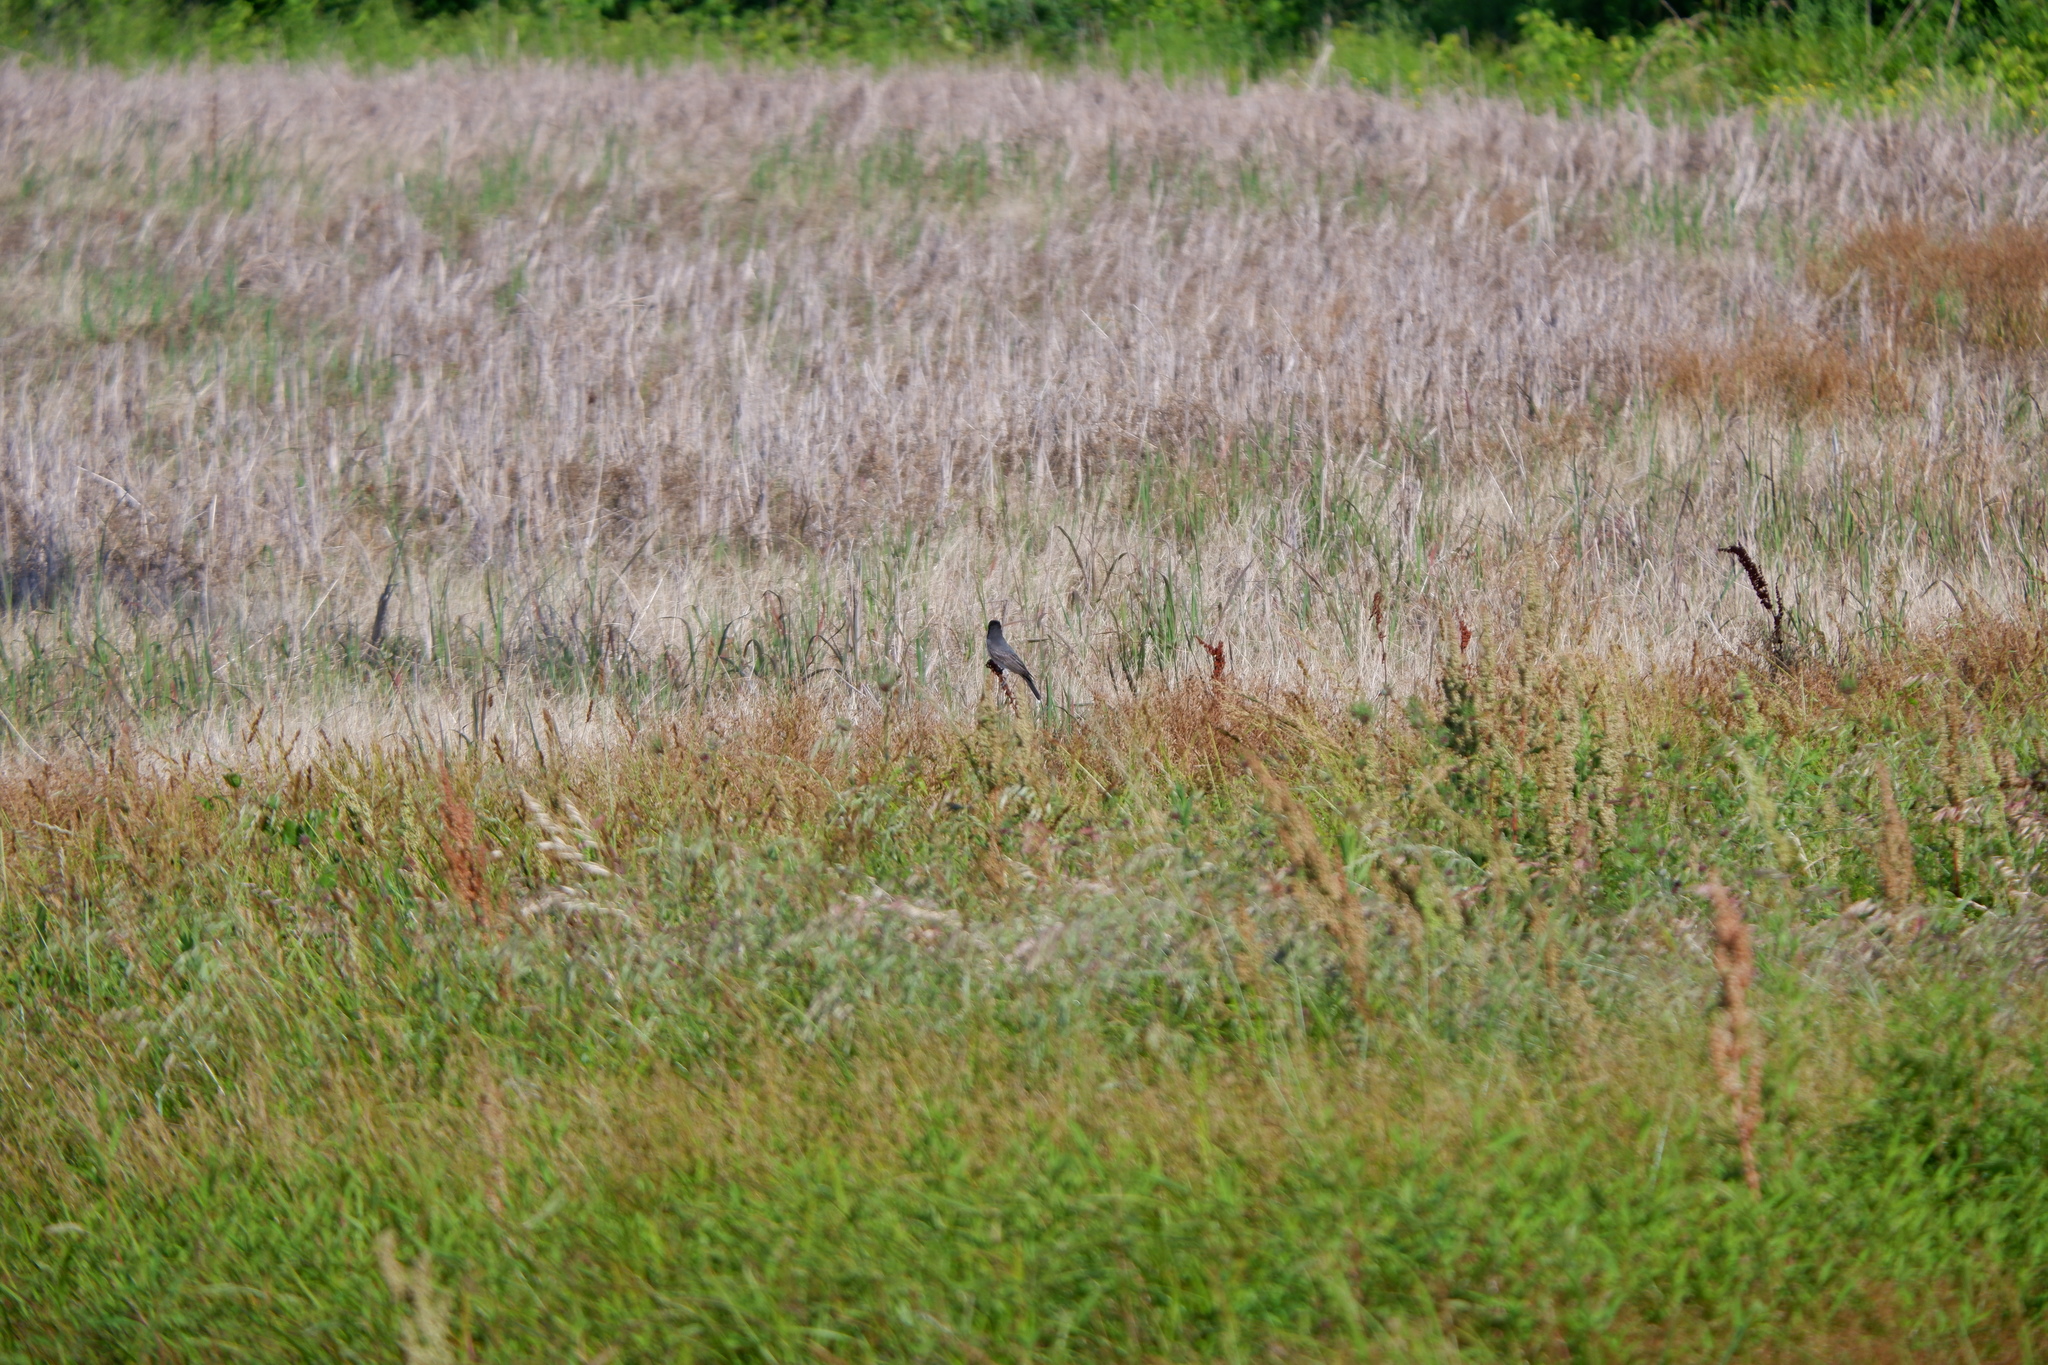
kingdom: Animalia
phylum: Chordata
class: Aves
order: Passeriformes
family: Tyrannidae
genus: Tyrannus
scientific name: Tyrannus tyrannus
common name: Eastern kingbird
